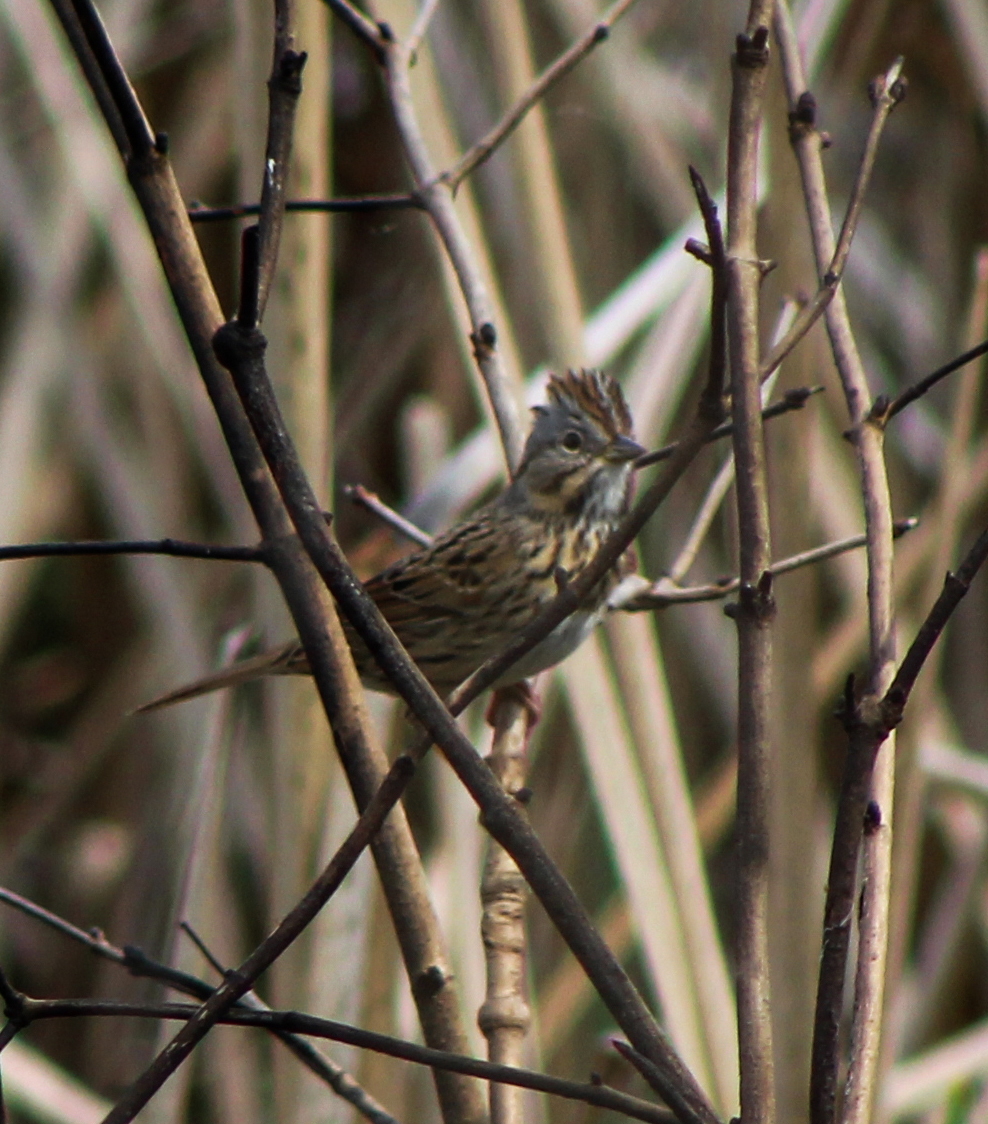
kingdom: Animalia
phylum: Chordata
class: Aves
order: Passeriformes
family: Passerellidae
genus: Melospiza
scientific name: Melospiza lincolnii
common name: Lincoln's sparrow
